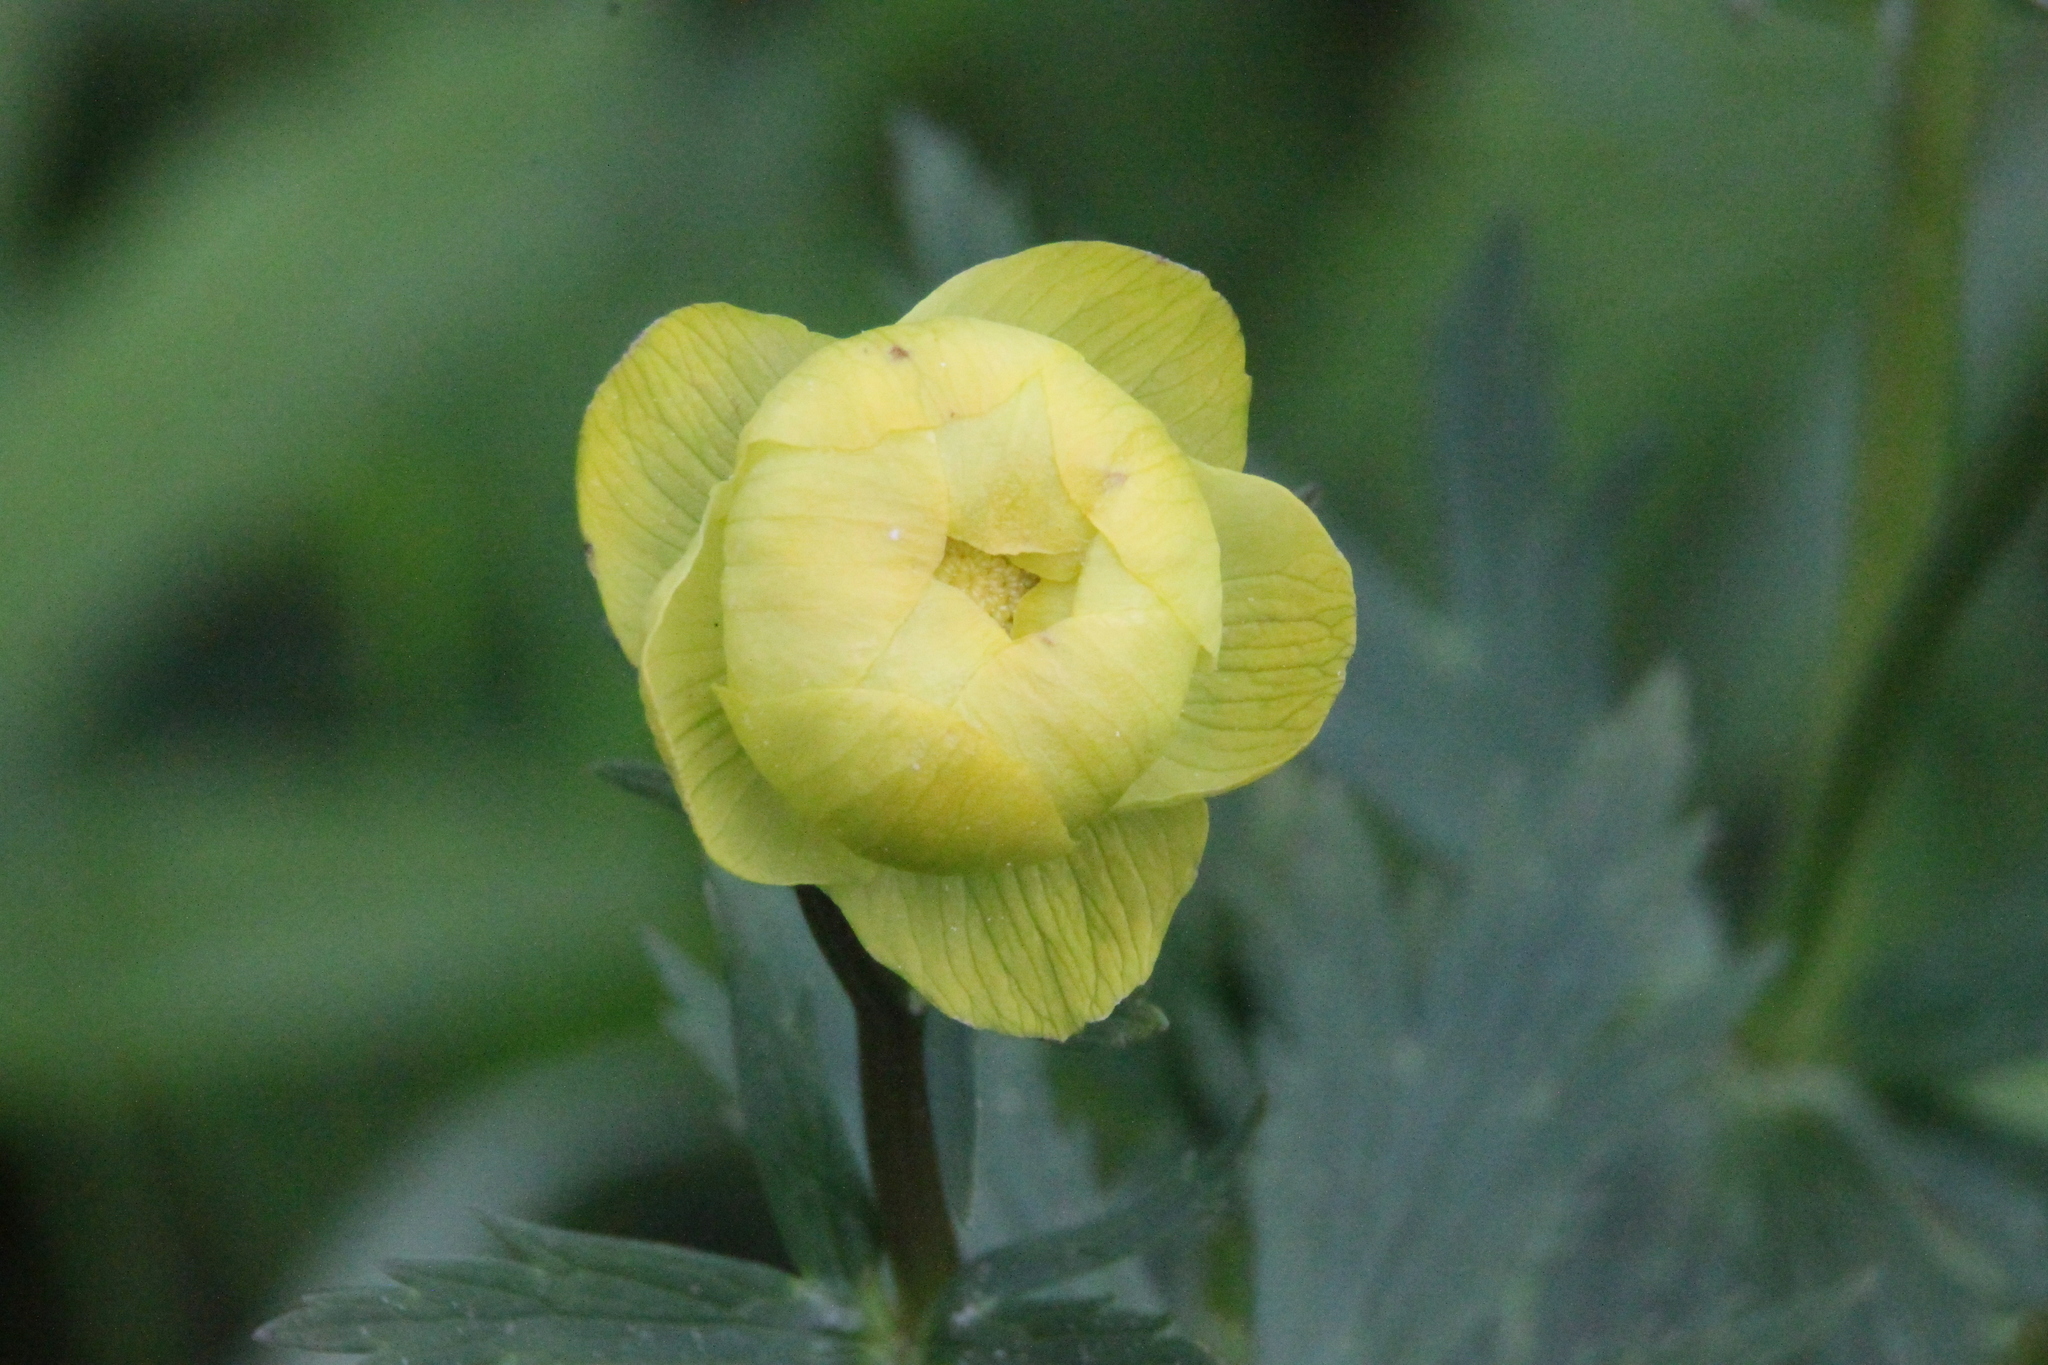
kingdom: Plantae
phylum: Tracheophyta
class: Magnoliopsida
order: Ranunculales
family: Ranunculaceae
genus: Trollius
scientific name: Trollius europaeus
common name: European globeflower
